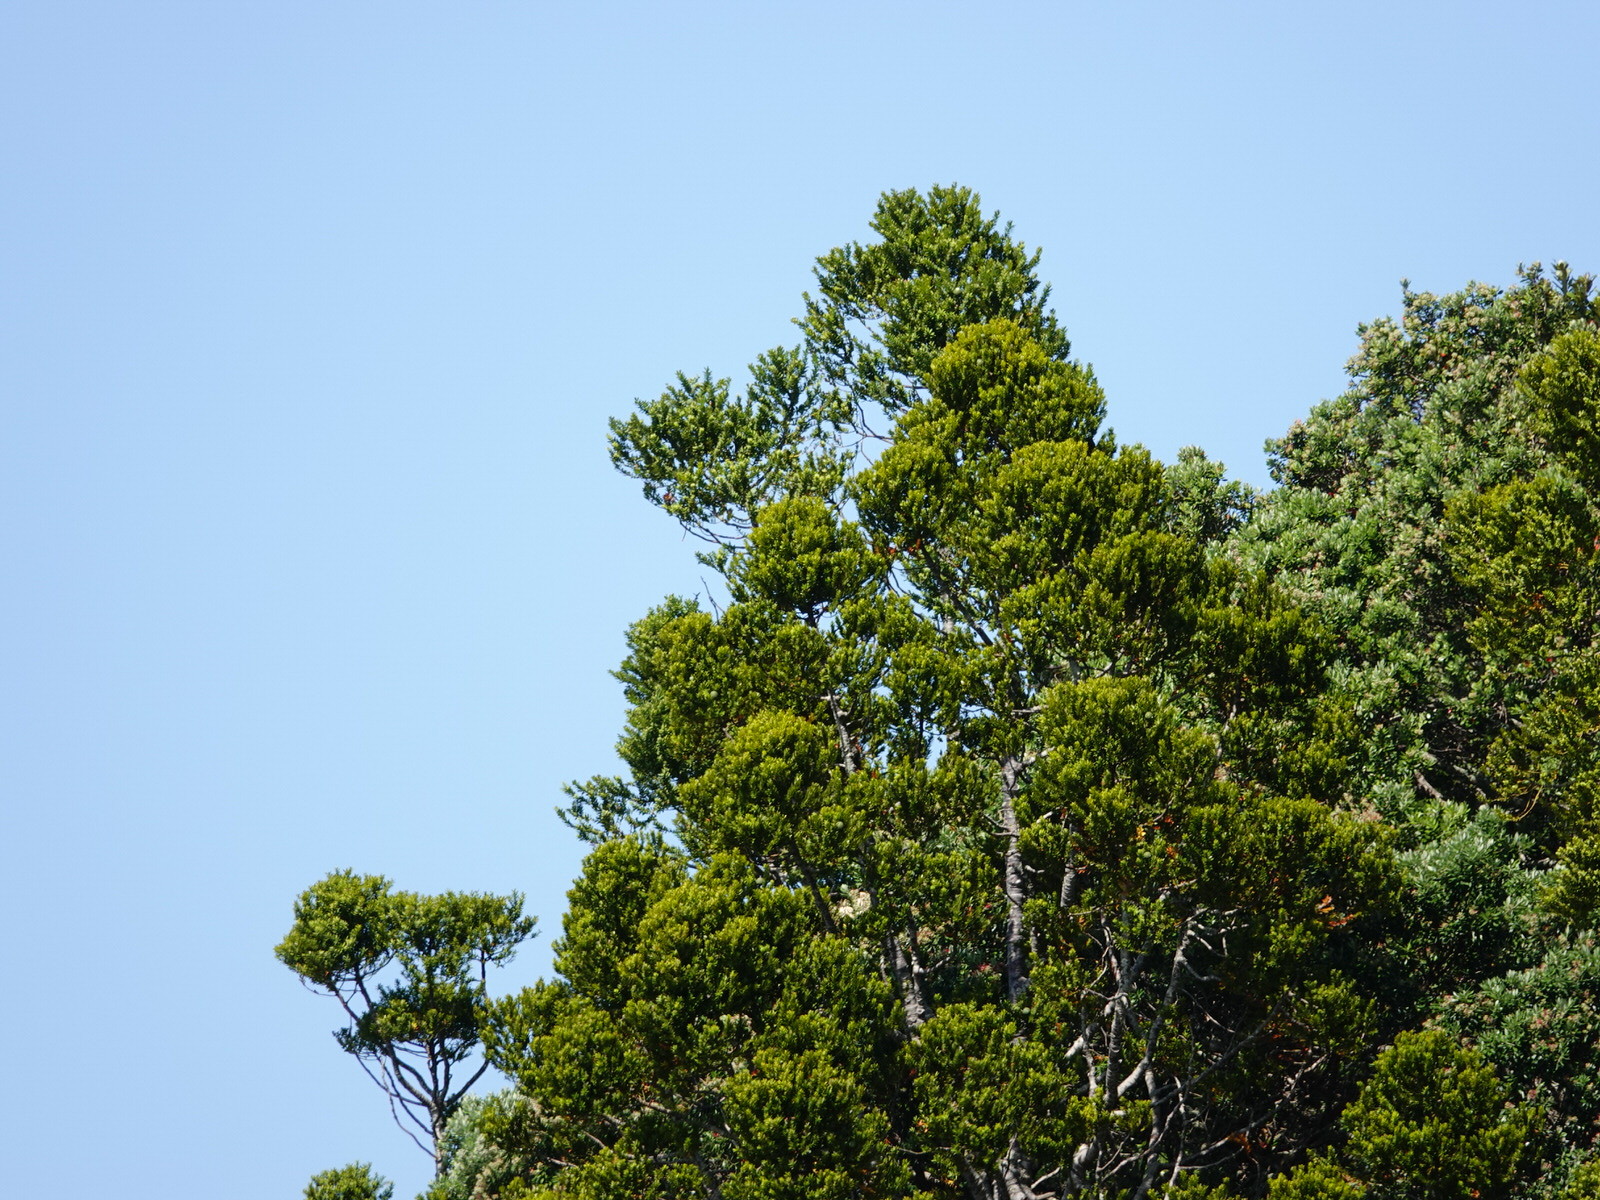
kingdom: Plantae
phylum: Tracheophyta
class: Pinopsida
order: Pinales
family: Araucariaceae
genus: Agathis
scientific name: Agathis australis
